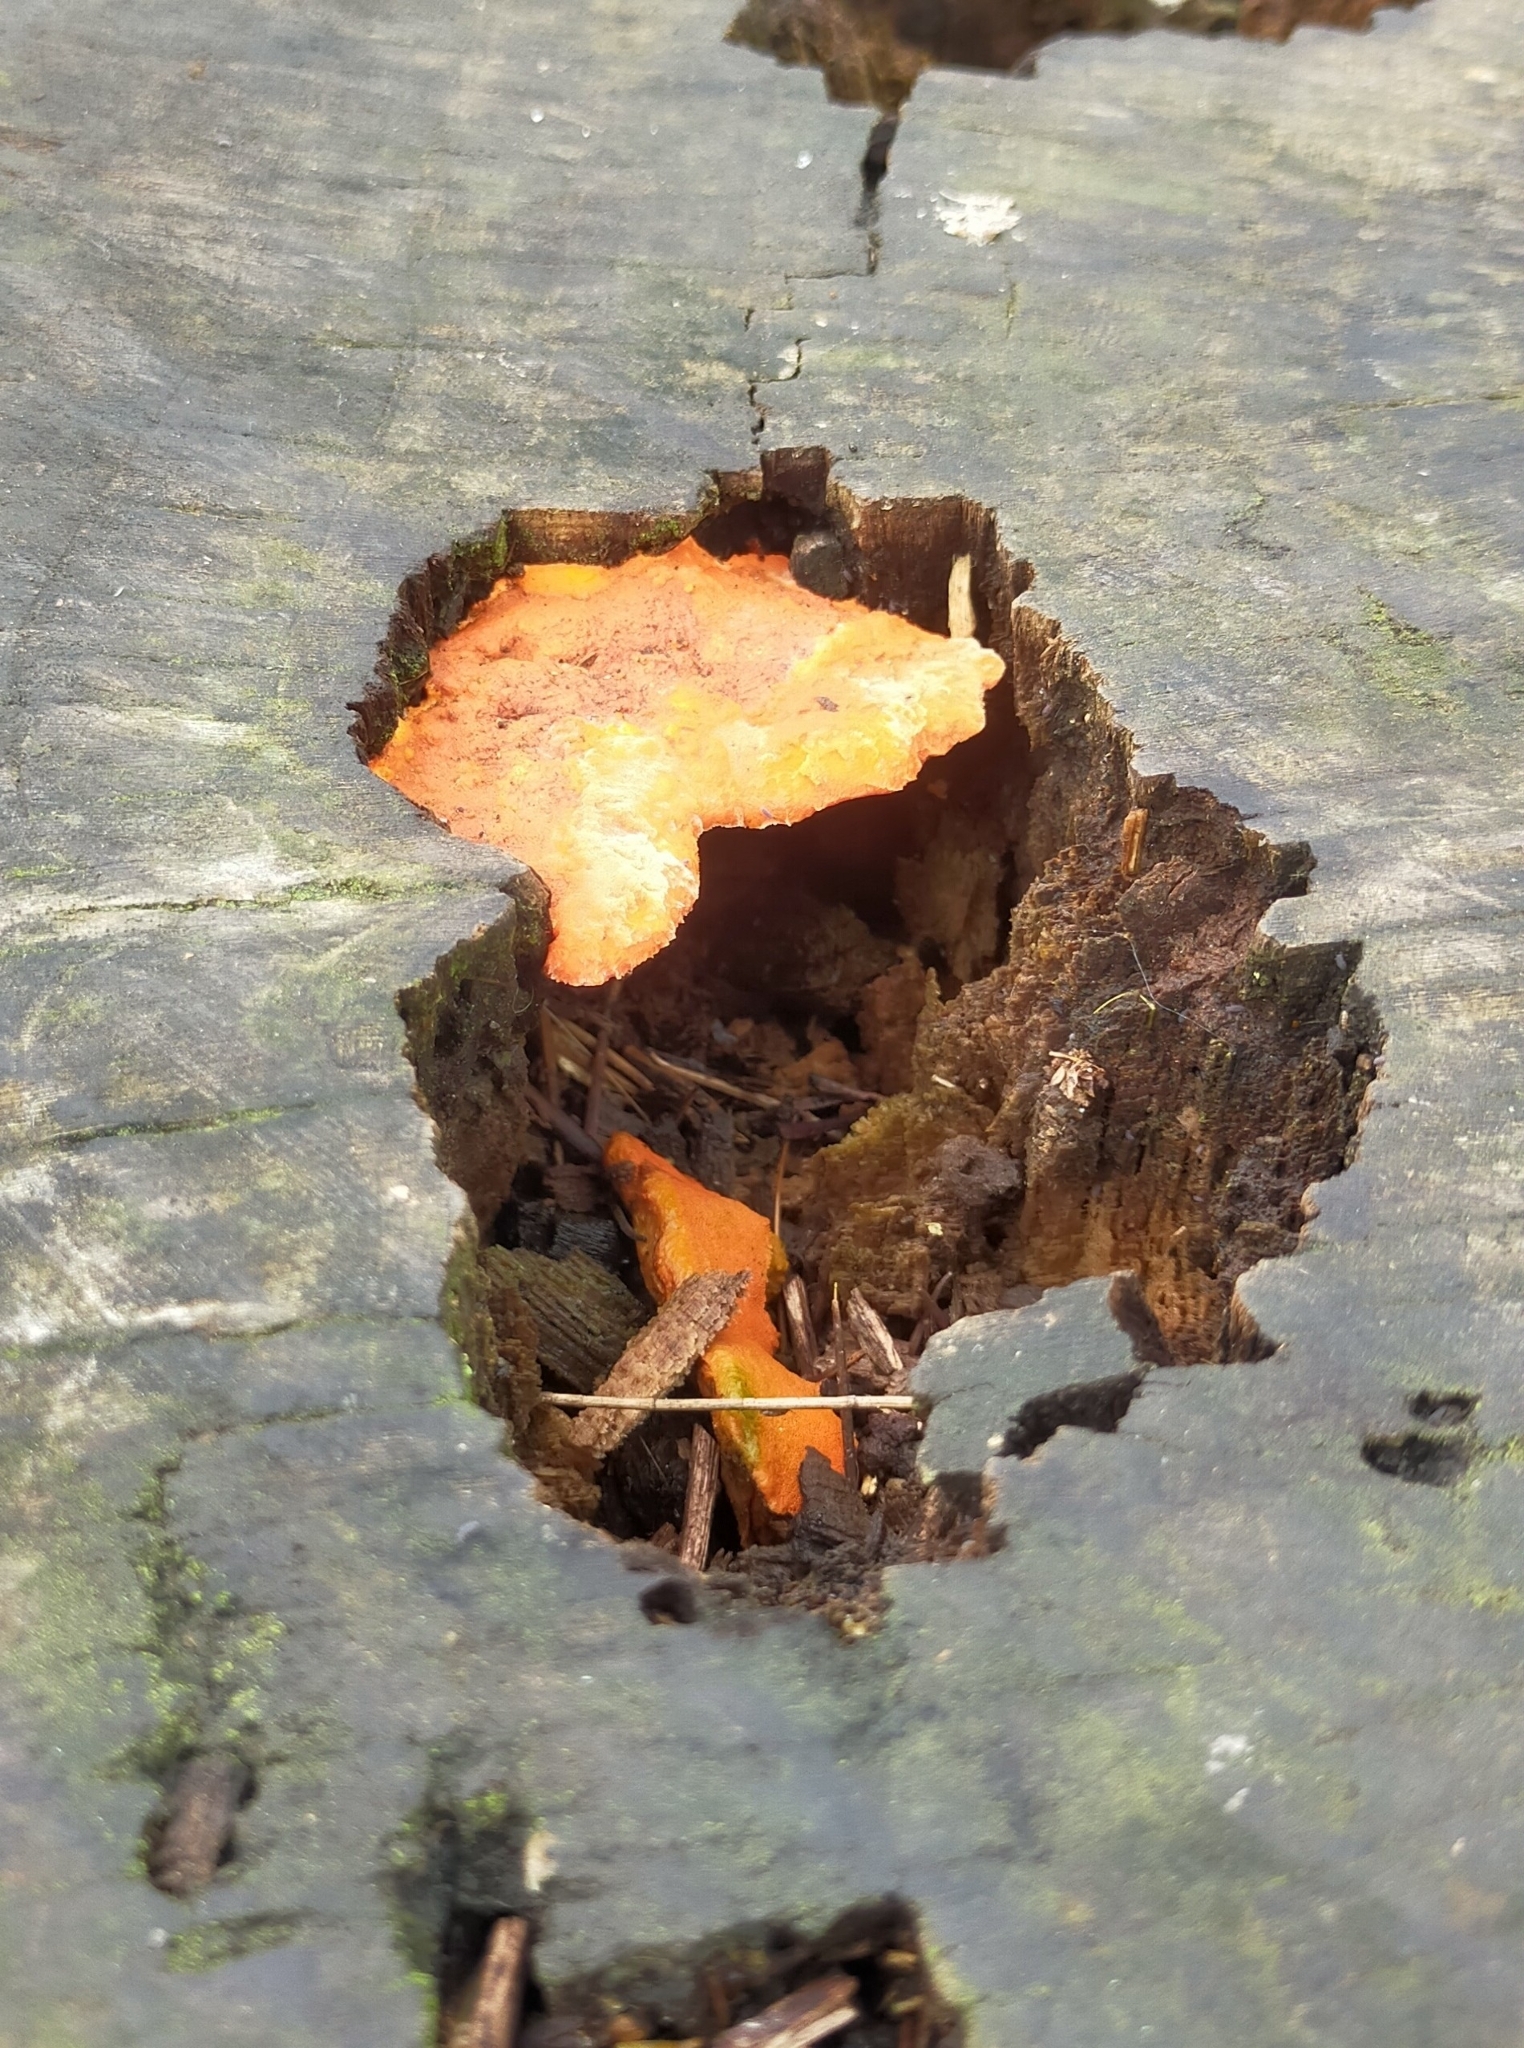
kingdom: Fungi
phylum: Basidiomycota
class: Agaricomycetes
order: Polyporales
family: Polyporaceae
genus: Trametes
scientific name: Trametes coccinea
